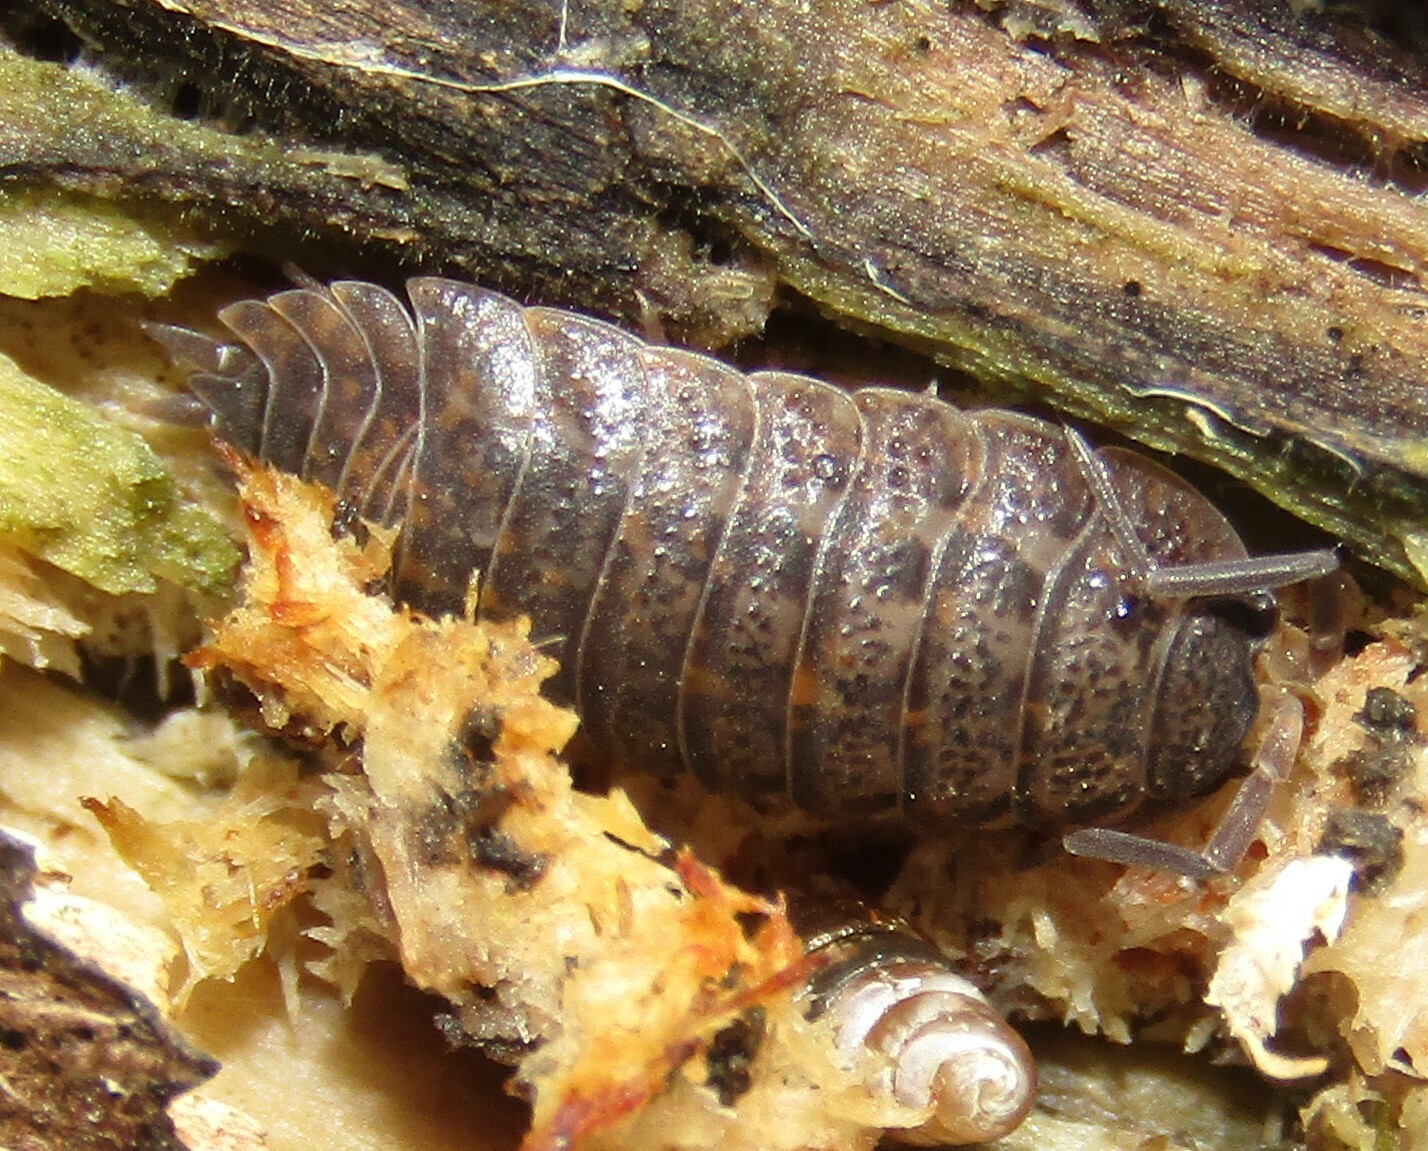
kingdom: Animalia
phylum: Arthropoda
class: Malacostraca
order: Isopoda
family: Trachelipodidae
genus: Trachelipus
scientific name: Trachelipus rathkii
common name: Isopod
